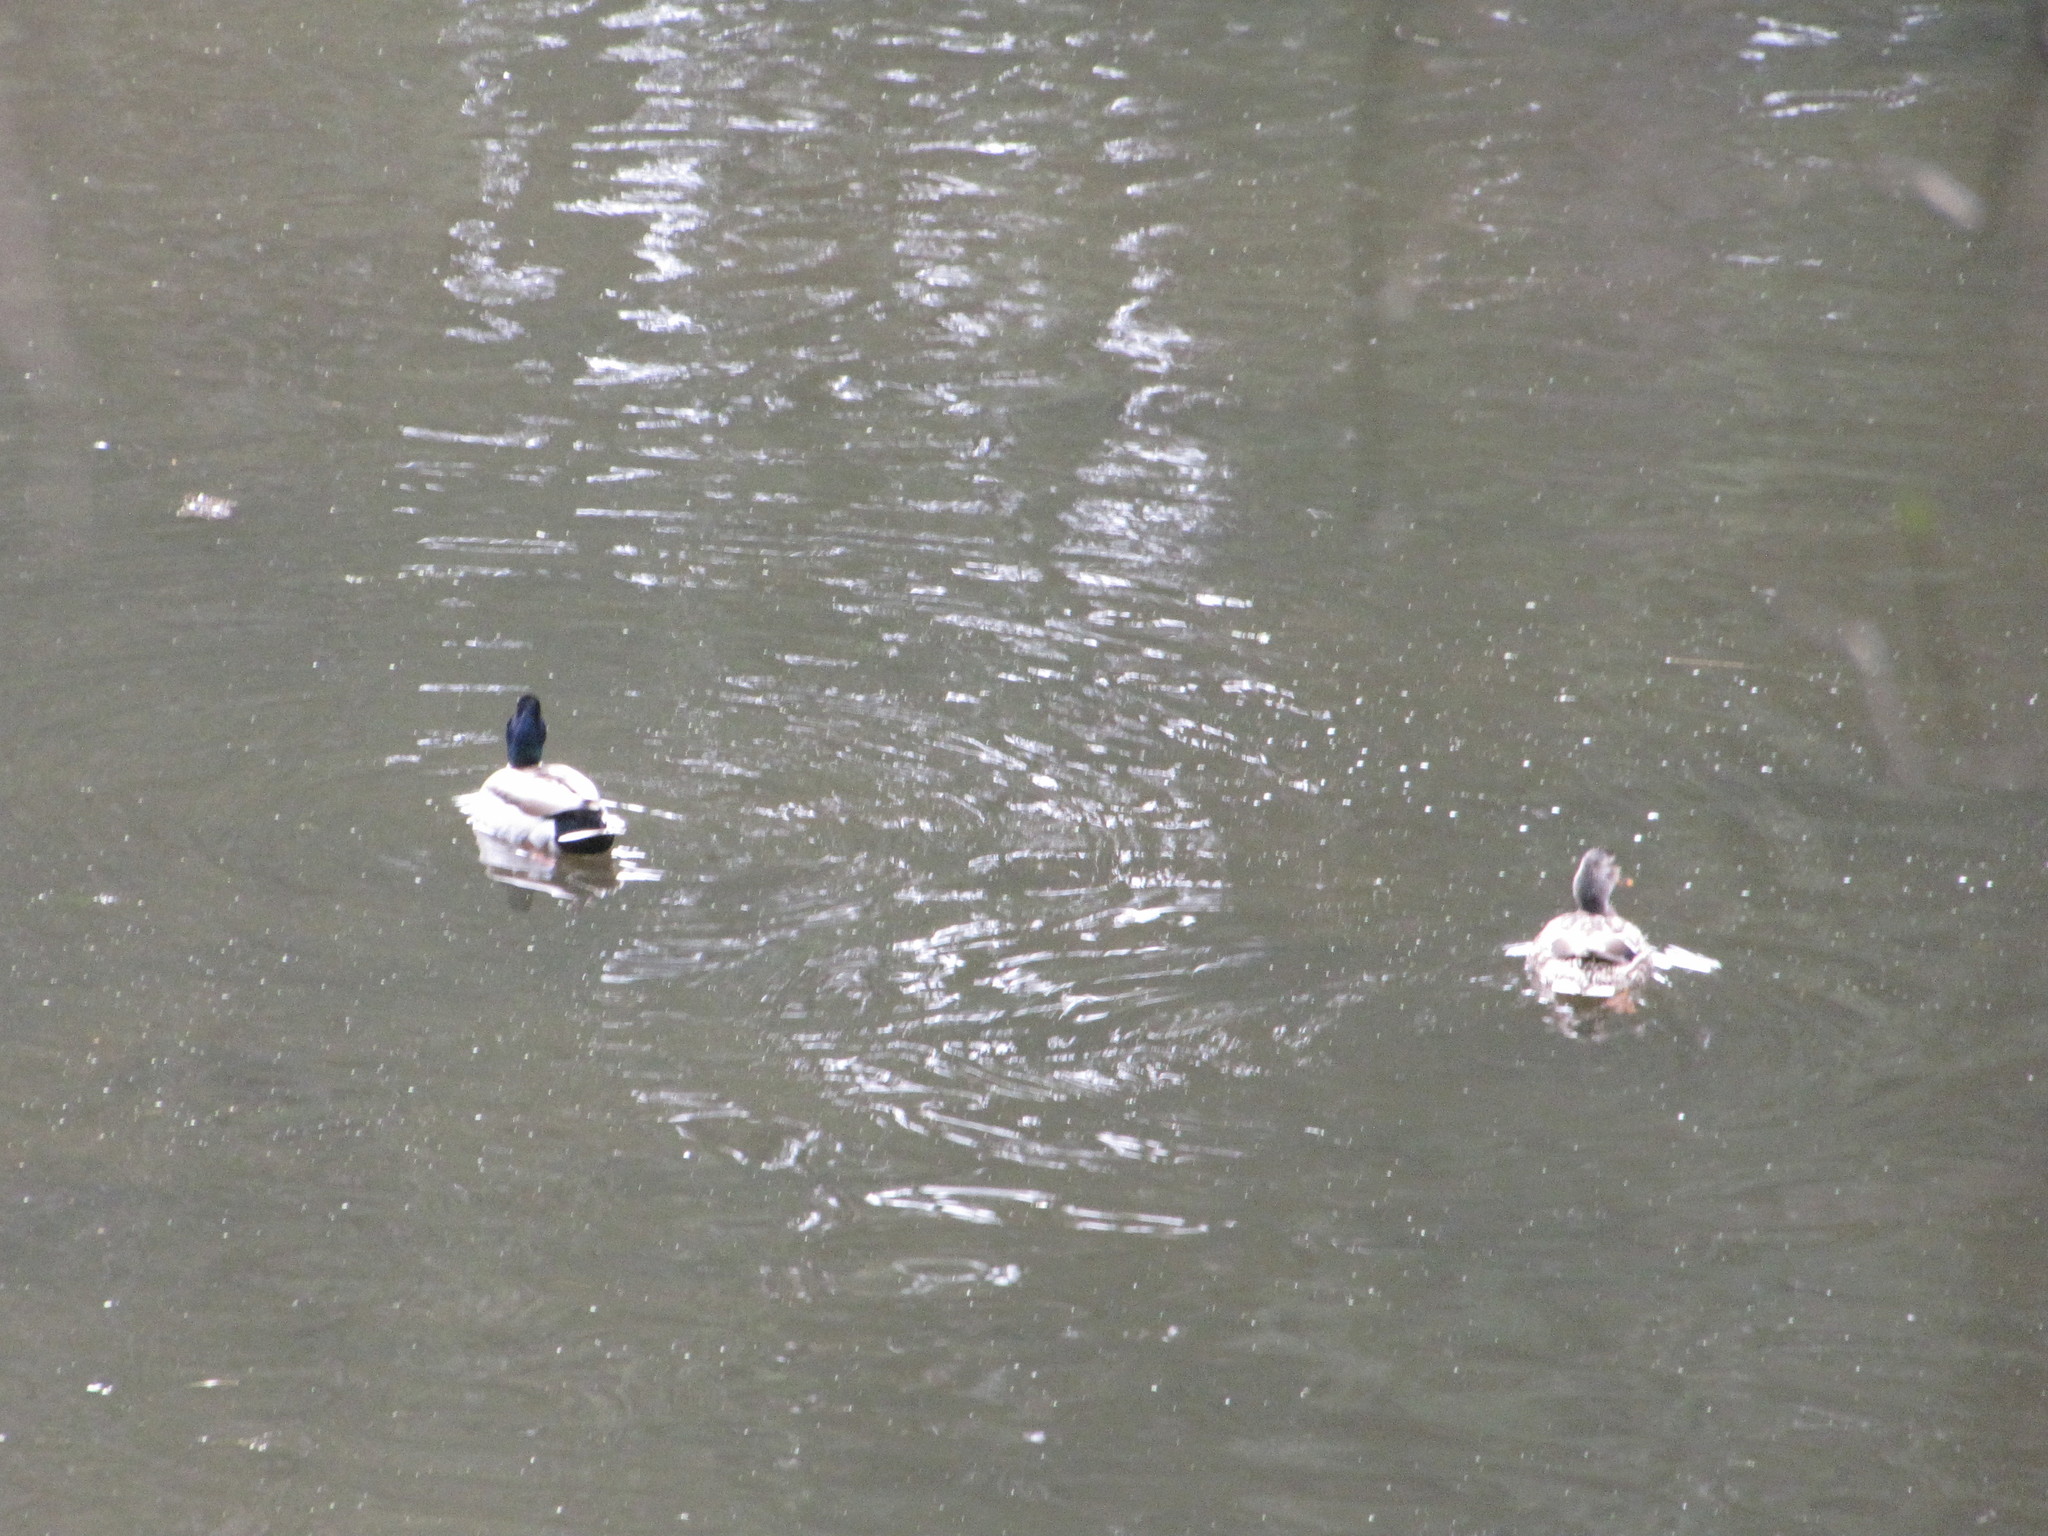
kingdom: Animalia
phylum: Chordata
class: Aves
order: Anseriformes
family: Anatidae
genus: Anas
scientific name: Anas platyrhynchos
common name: Mallard
